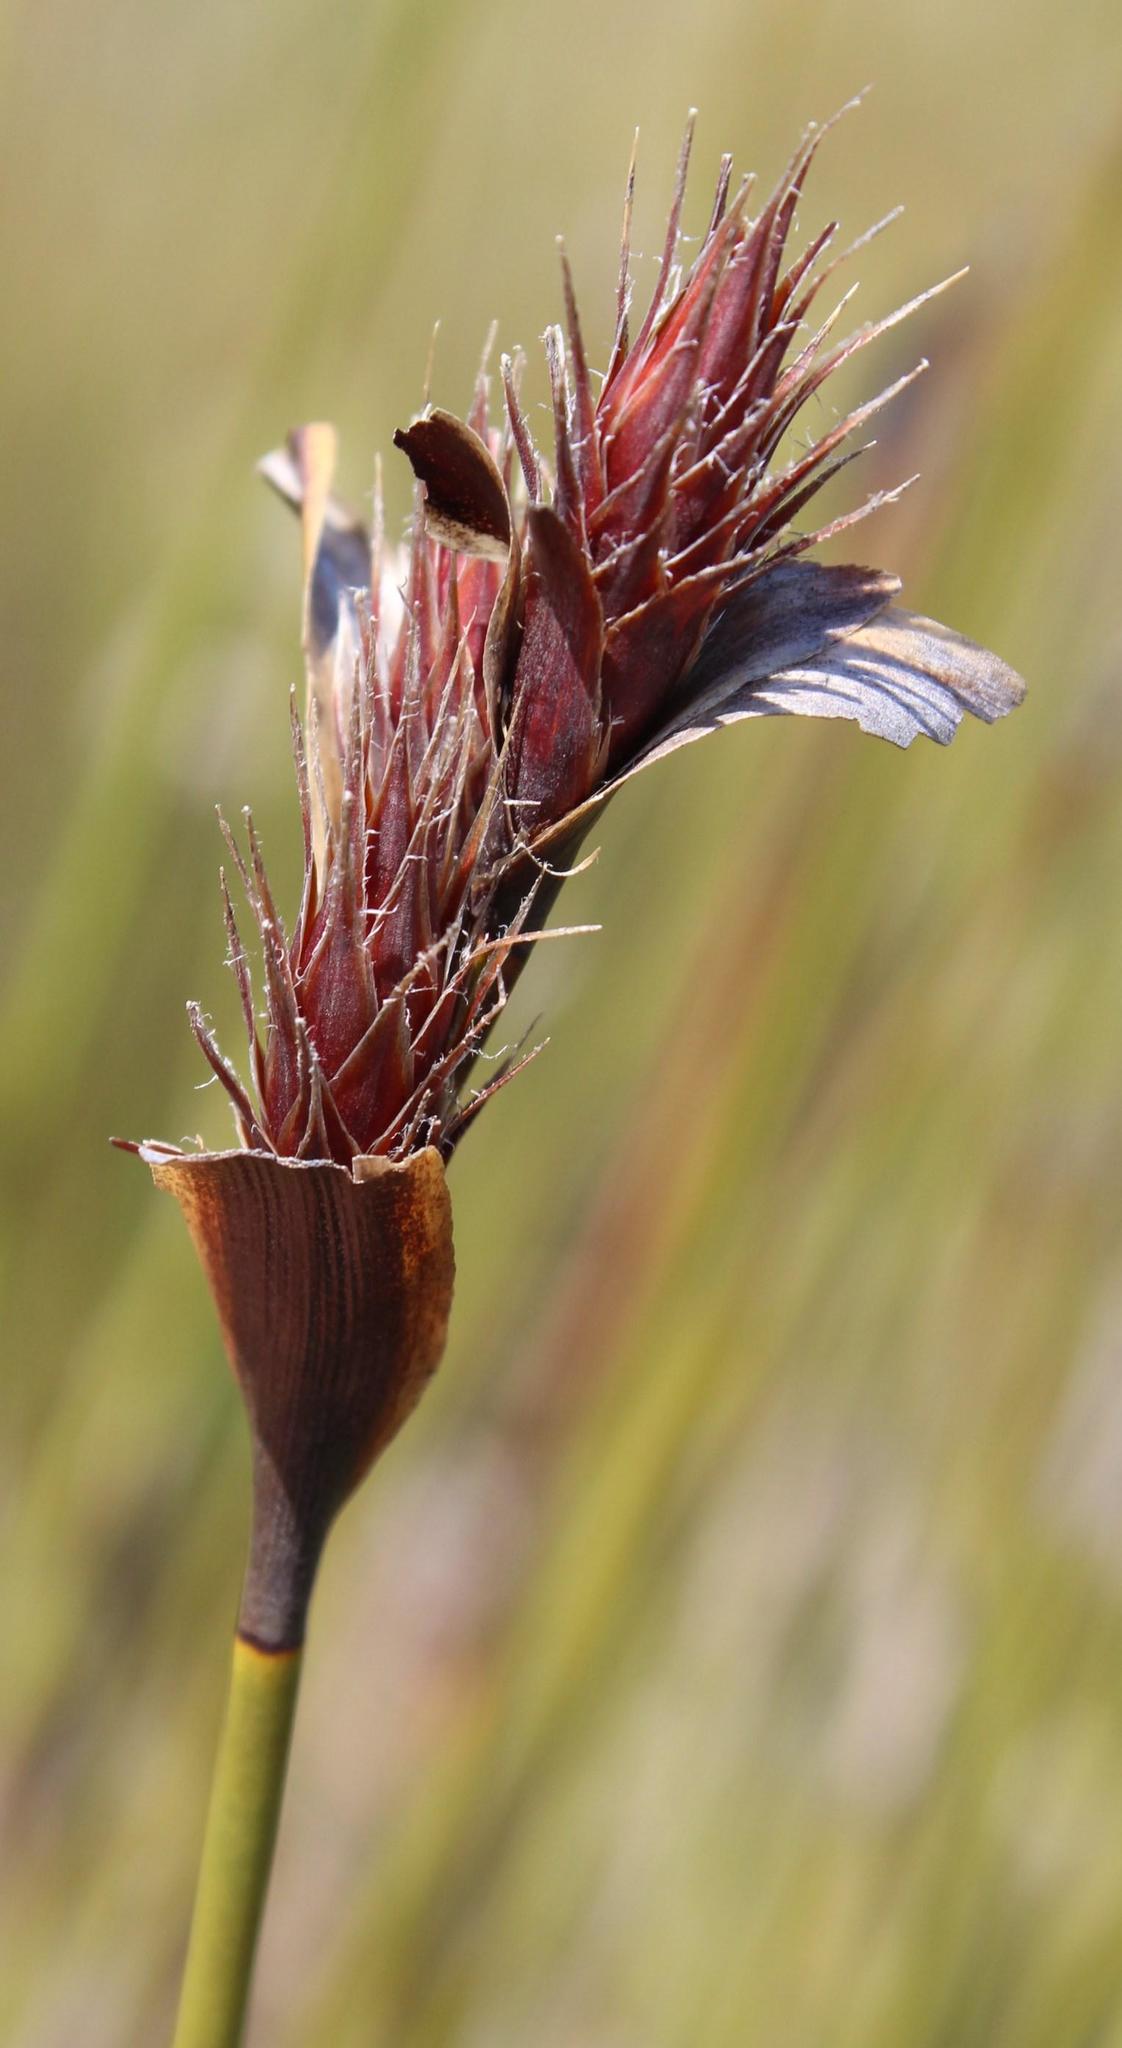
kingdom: Plantae
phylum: Tracheophyta
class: Liliopsida
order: Poales
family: Restionaceae
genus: Hypodiscus
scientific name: Hypodiscus aristatus
